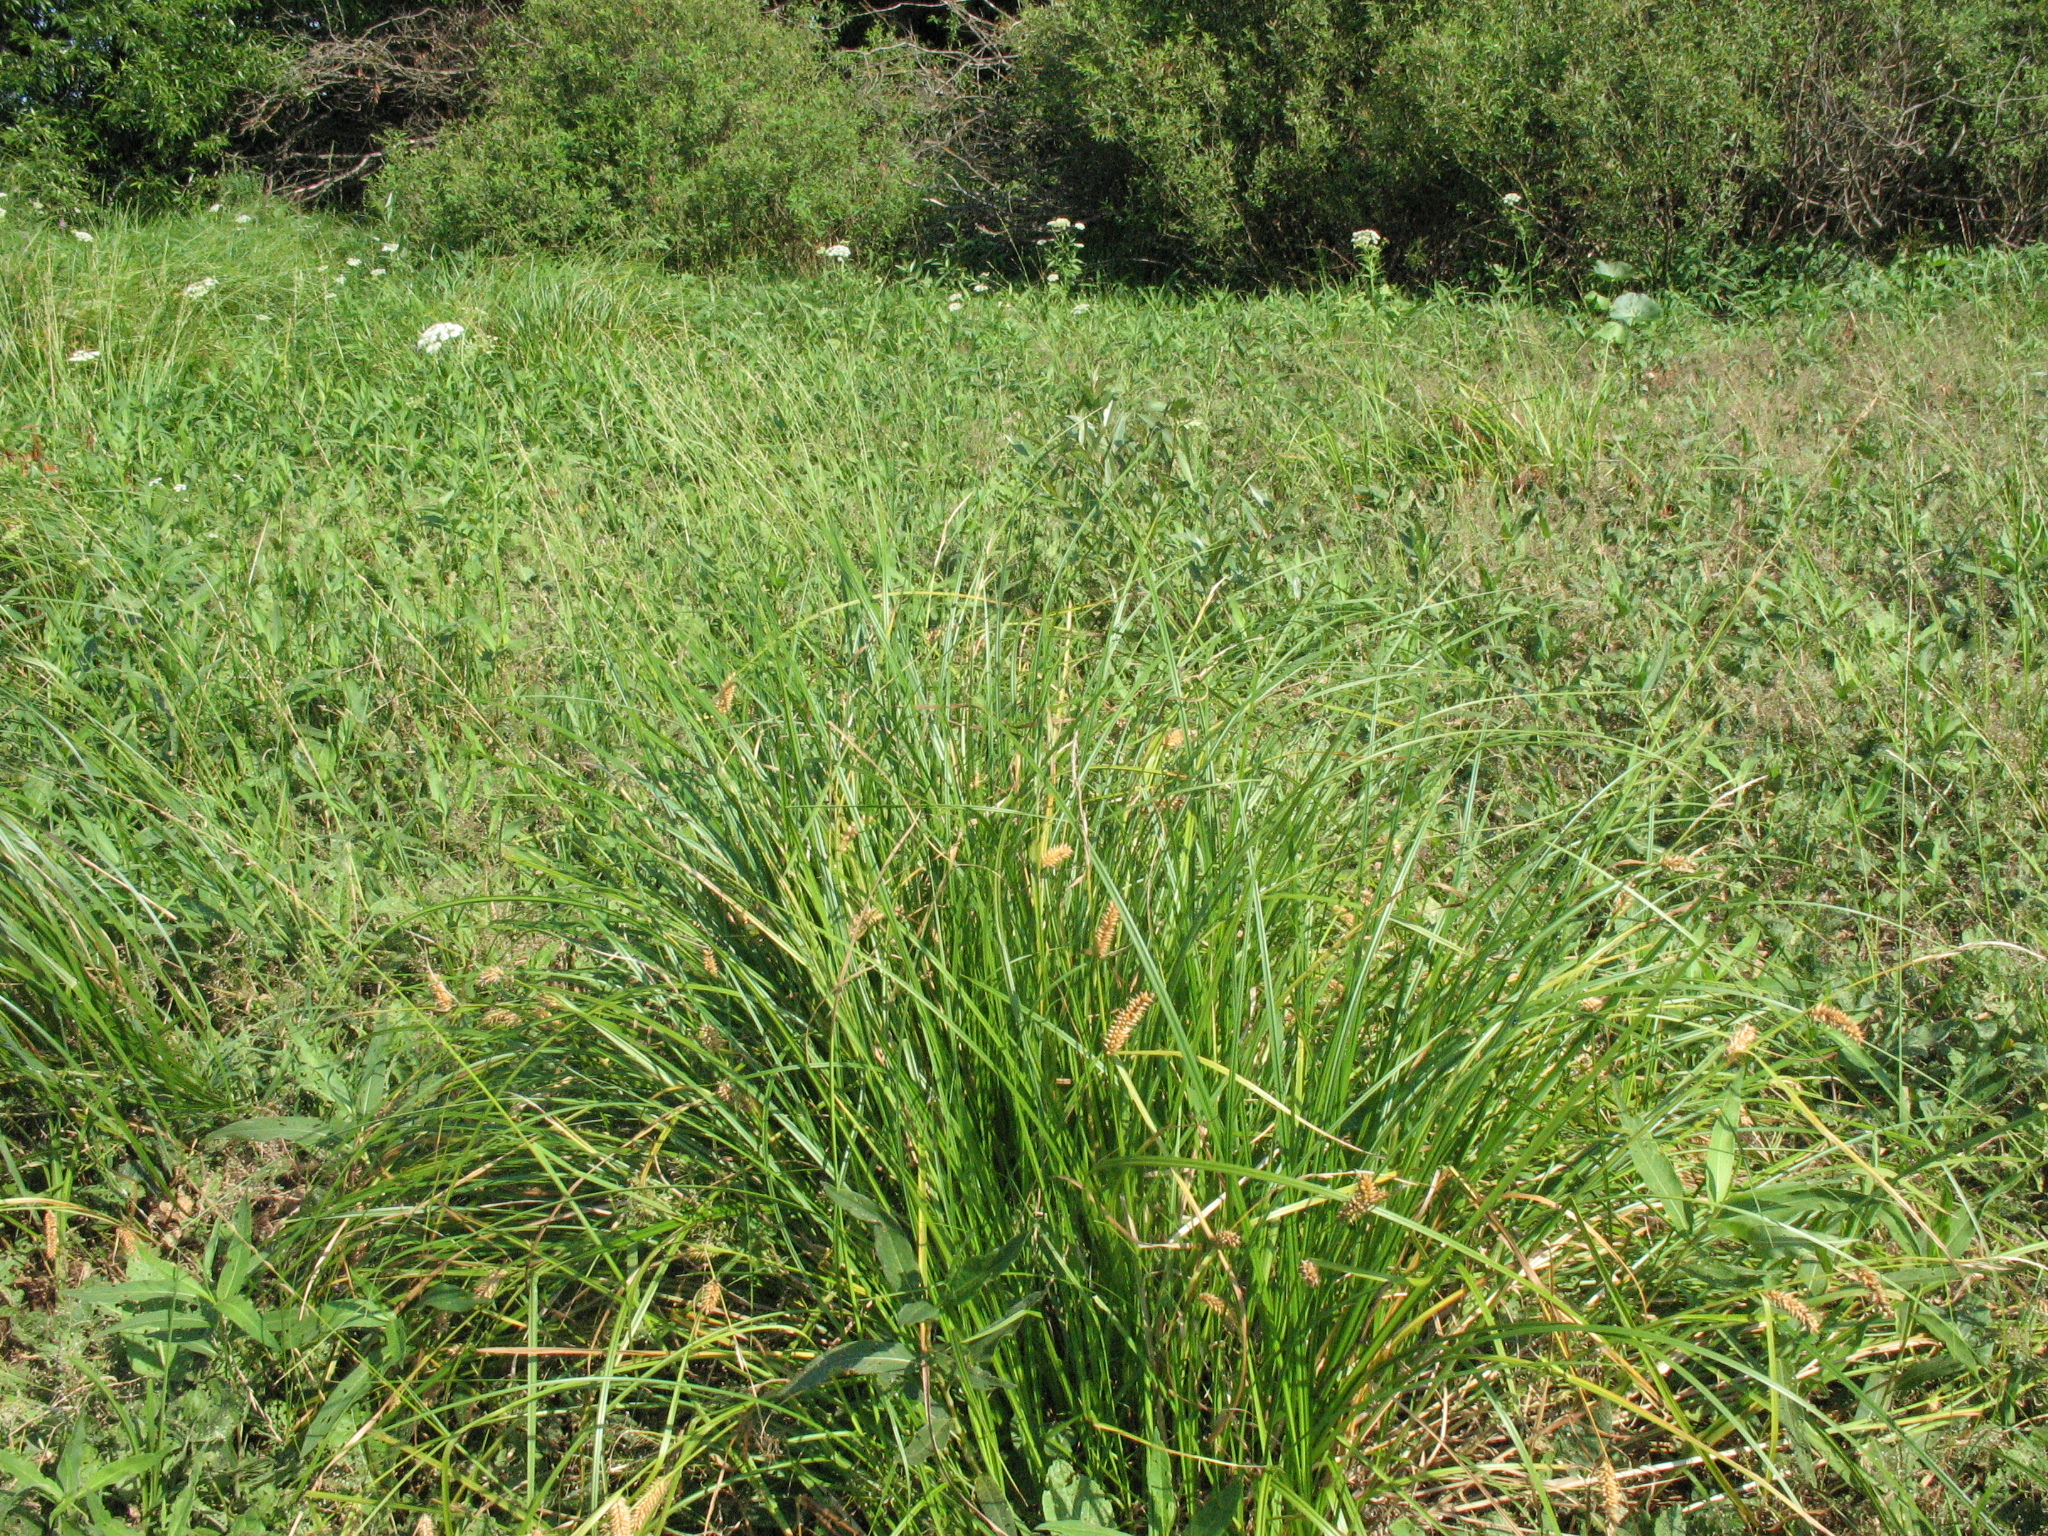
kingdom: Plantae
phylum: Tracheophyta
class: Liliopsida
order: Poales
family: Cyperaceae
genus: Carex
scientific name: Carex vesicaria
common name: Bladder-sedge
